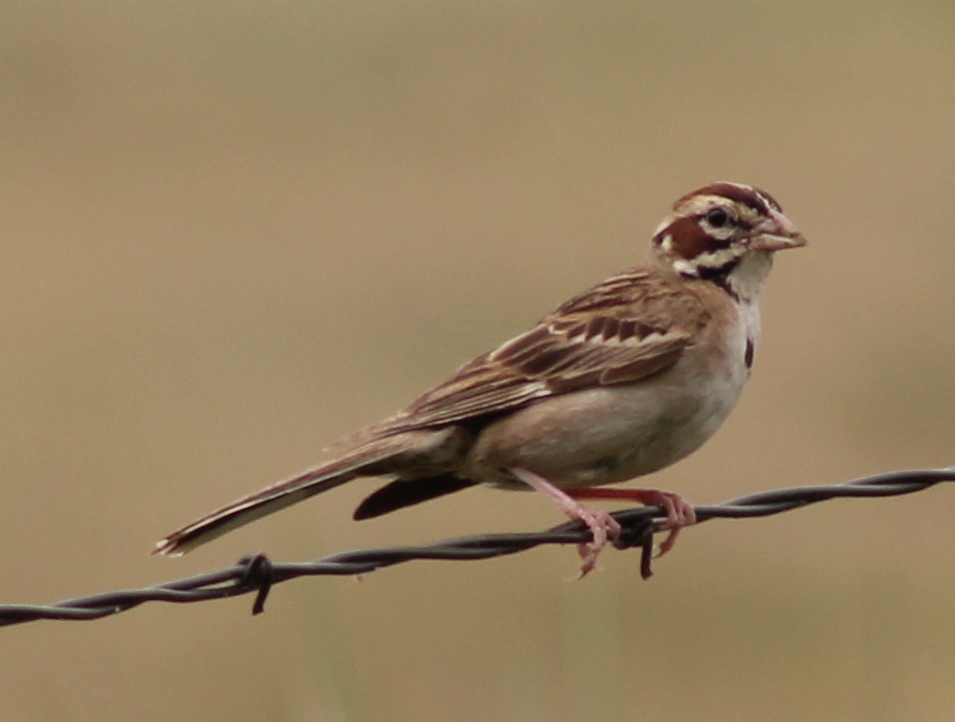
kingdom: Animalia
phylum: Chordata
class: Aves
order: Passeriformes
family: Passerellidae
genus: Chondestes
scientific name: Chondestes grammacus
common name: Lark sparrow
